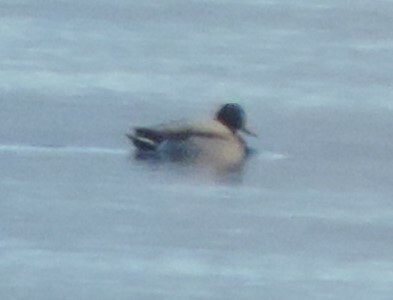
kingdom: Animalia
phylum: Chordata
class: Aves
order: Anseriformes
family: Anatidae
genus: Anas
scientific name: Anas platyrhynchos
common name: Mallard
